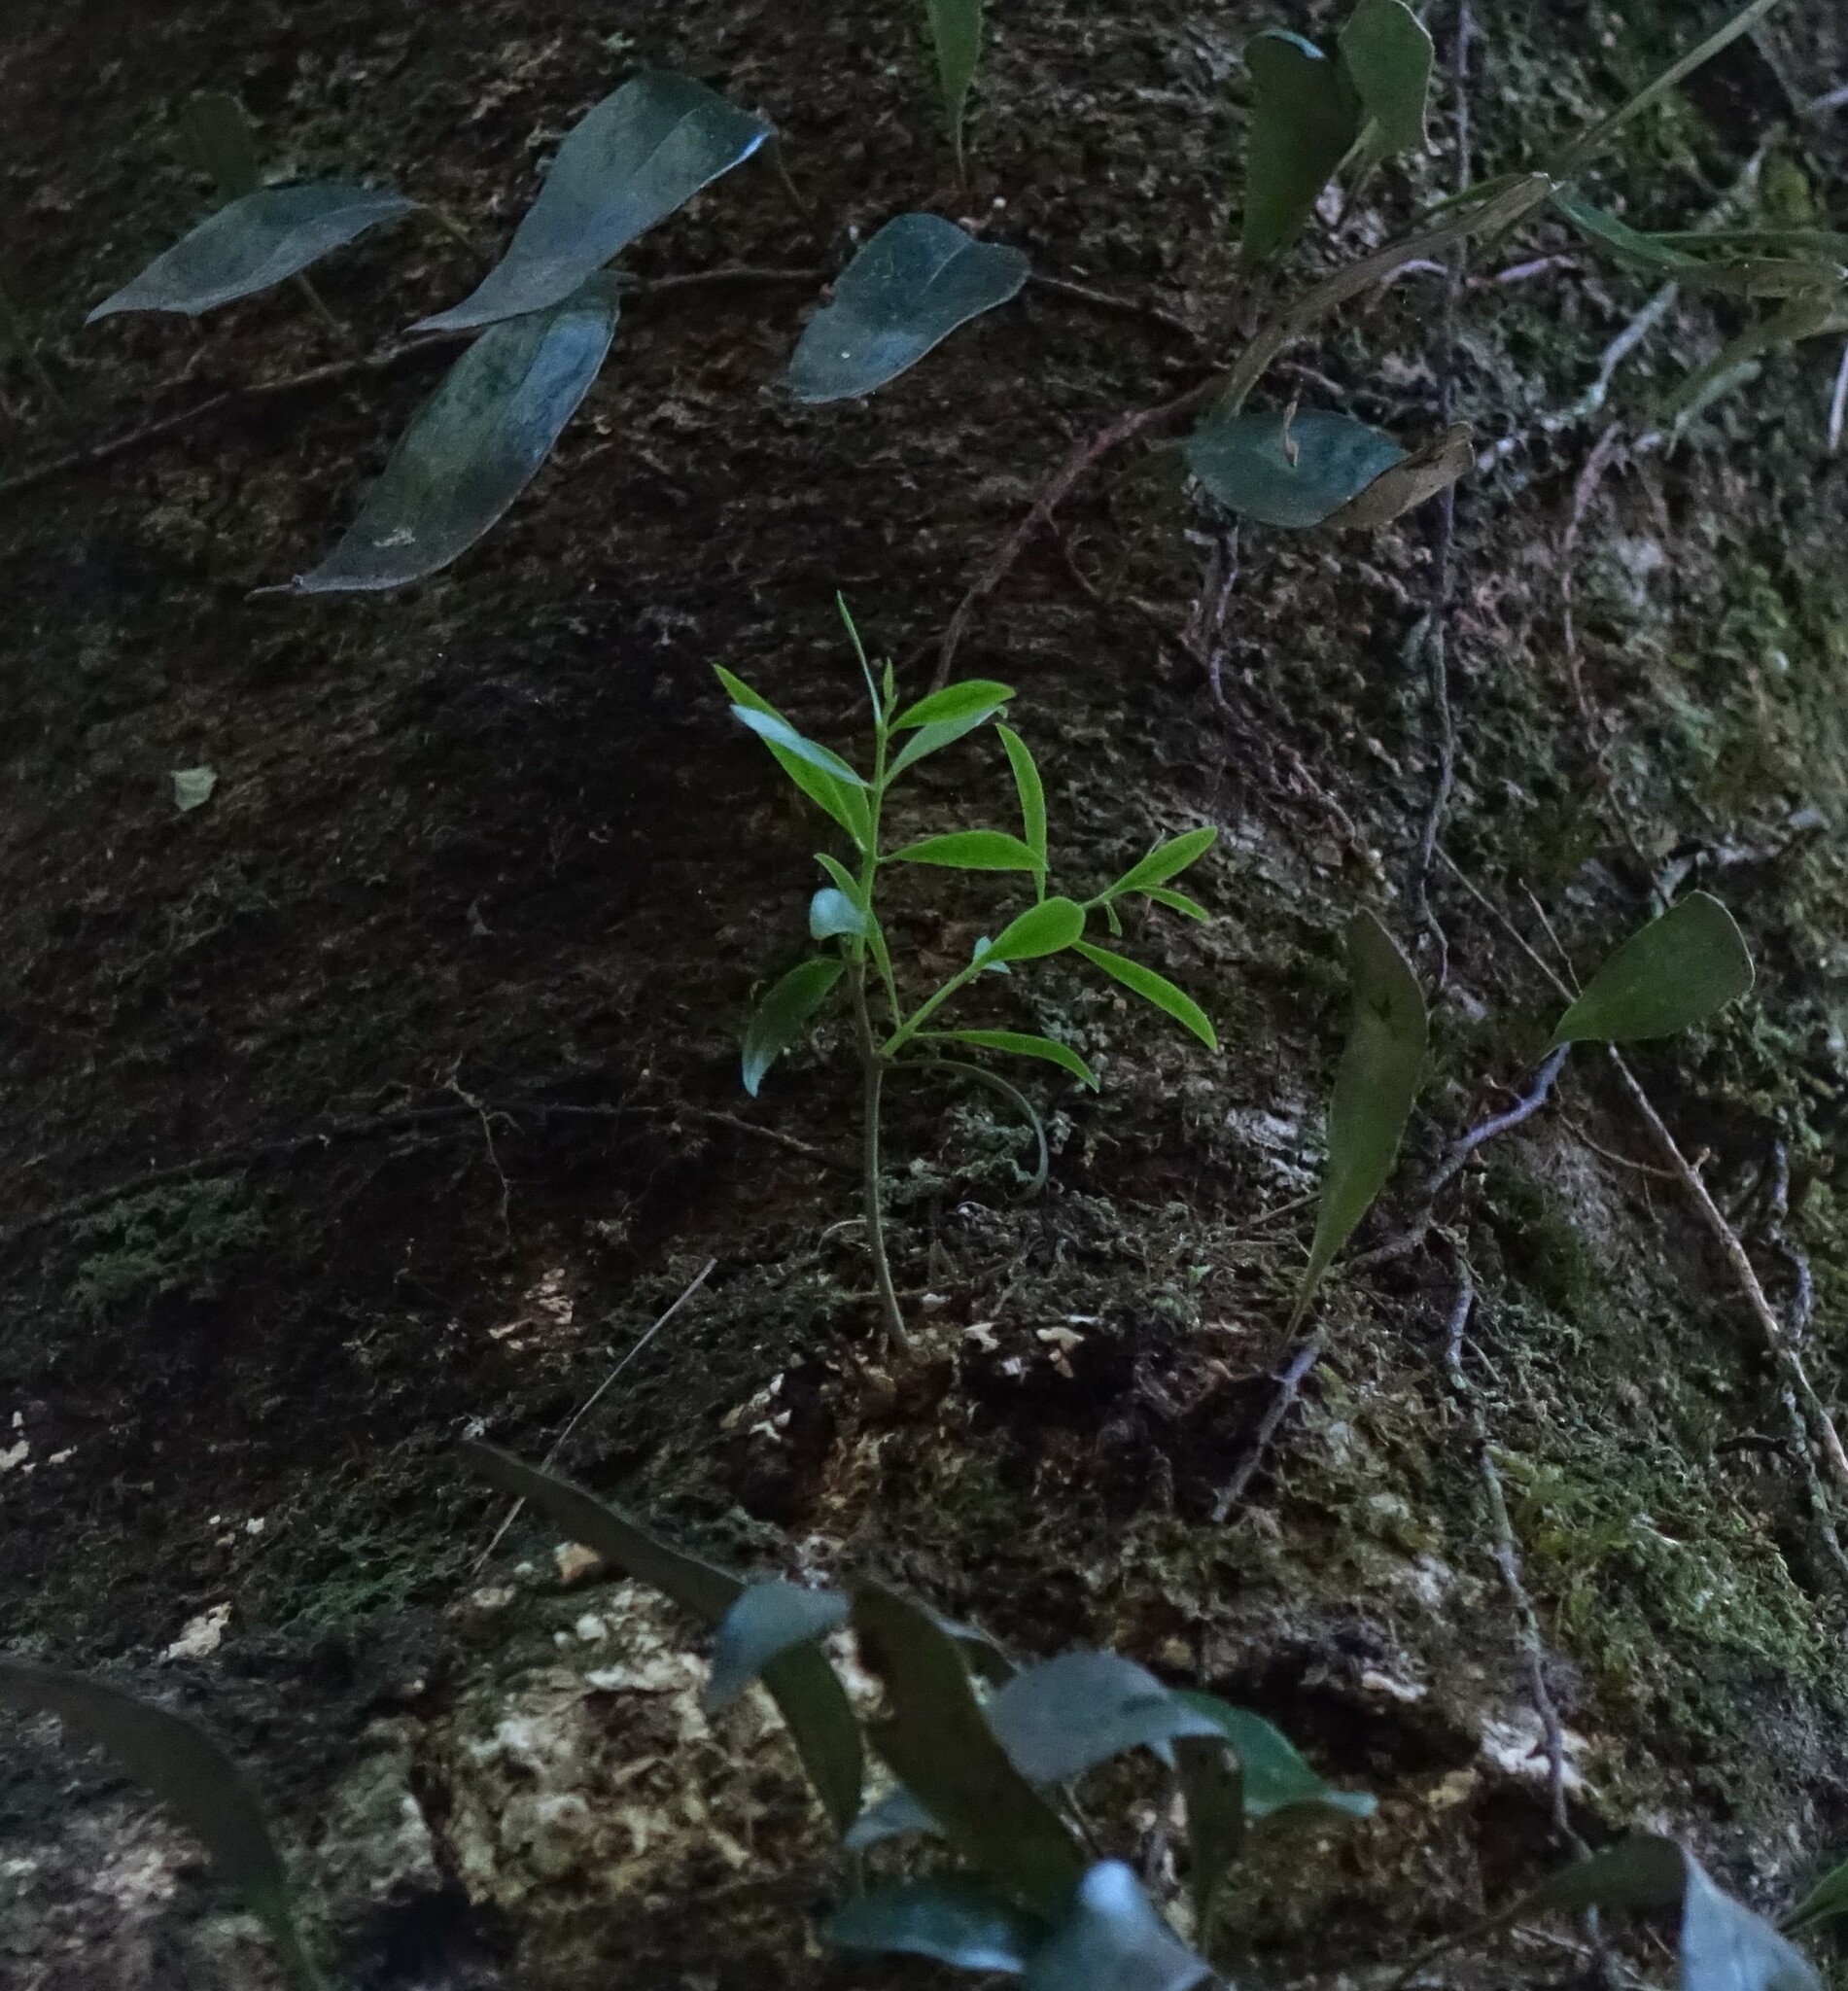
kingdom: Plantae
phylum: Tracheophyta
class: Magnoliopsida
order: Santalales
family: Loranthaceae
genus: Tupeia
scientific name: Tupeia antarctica
